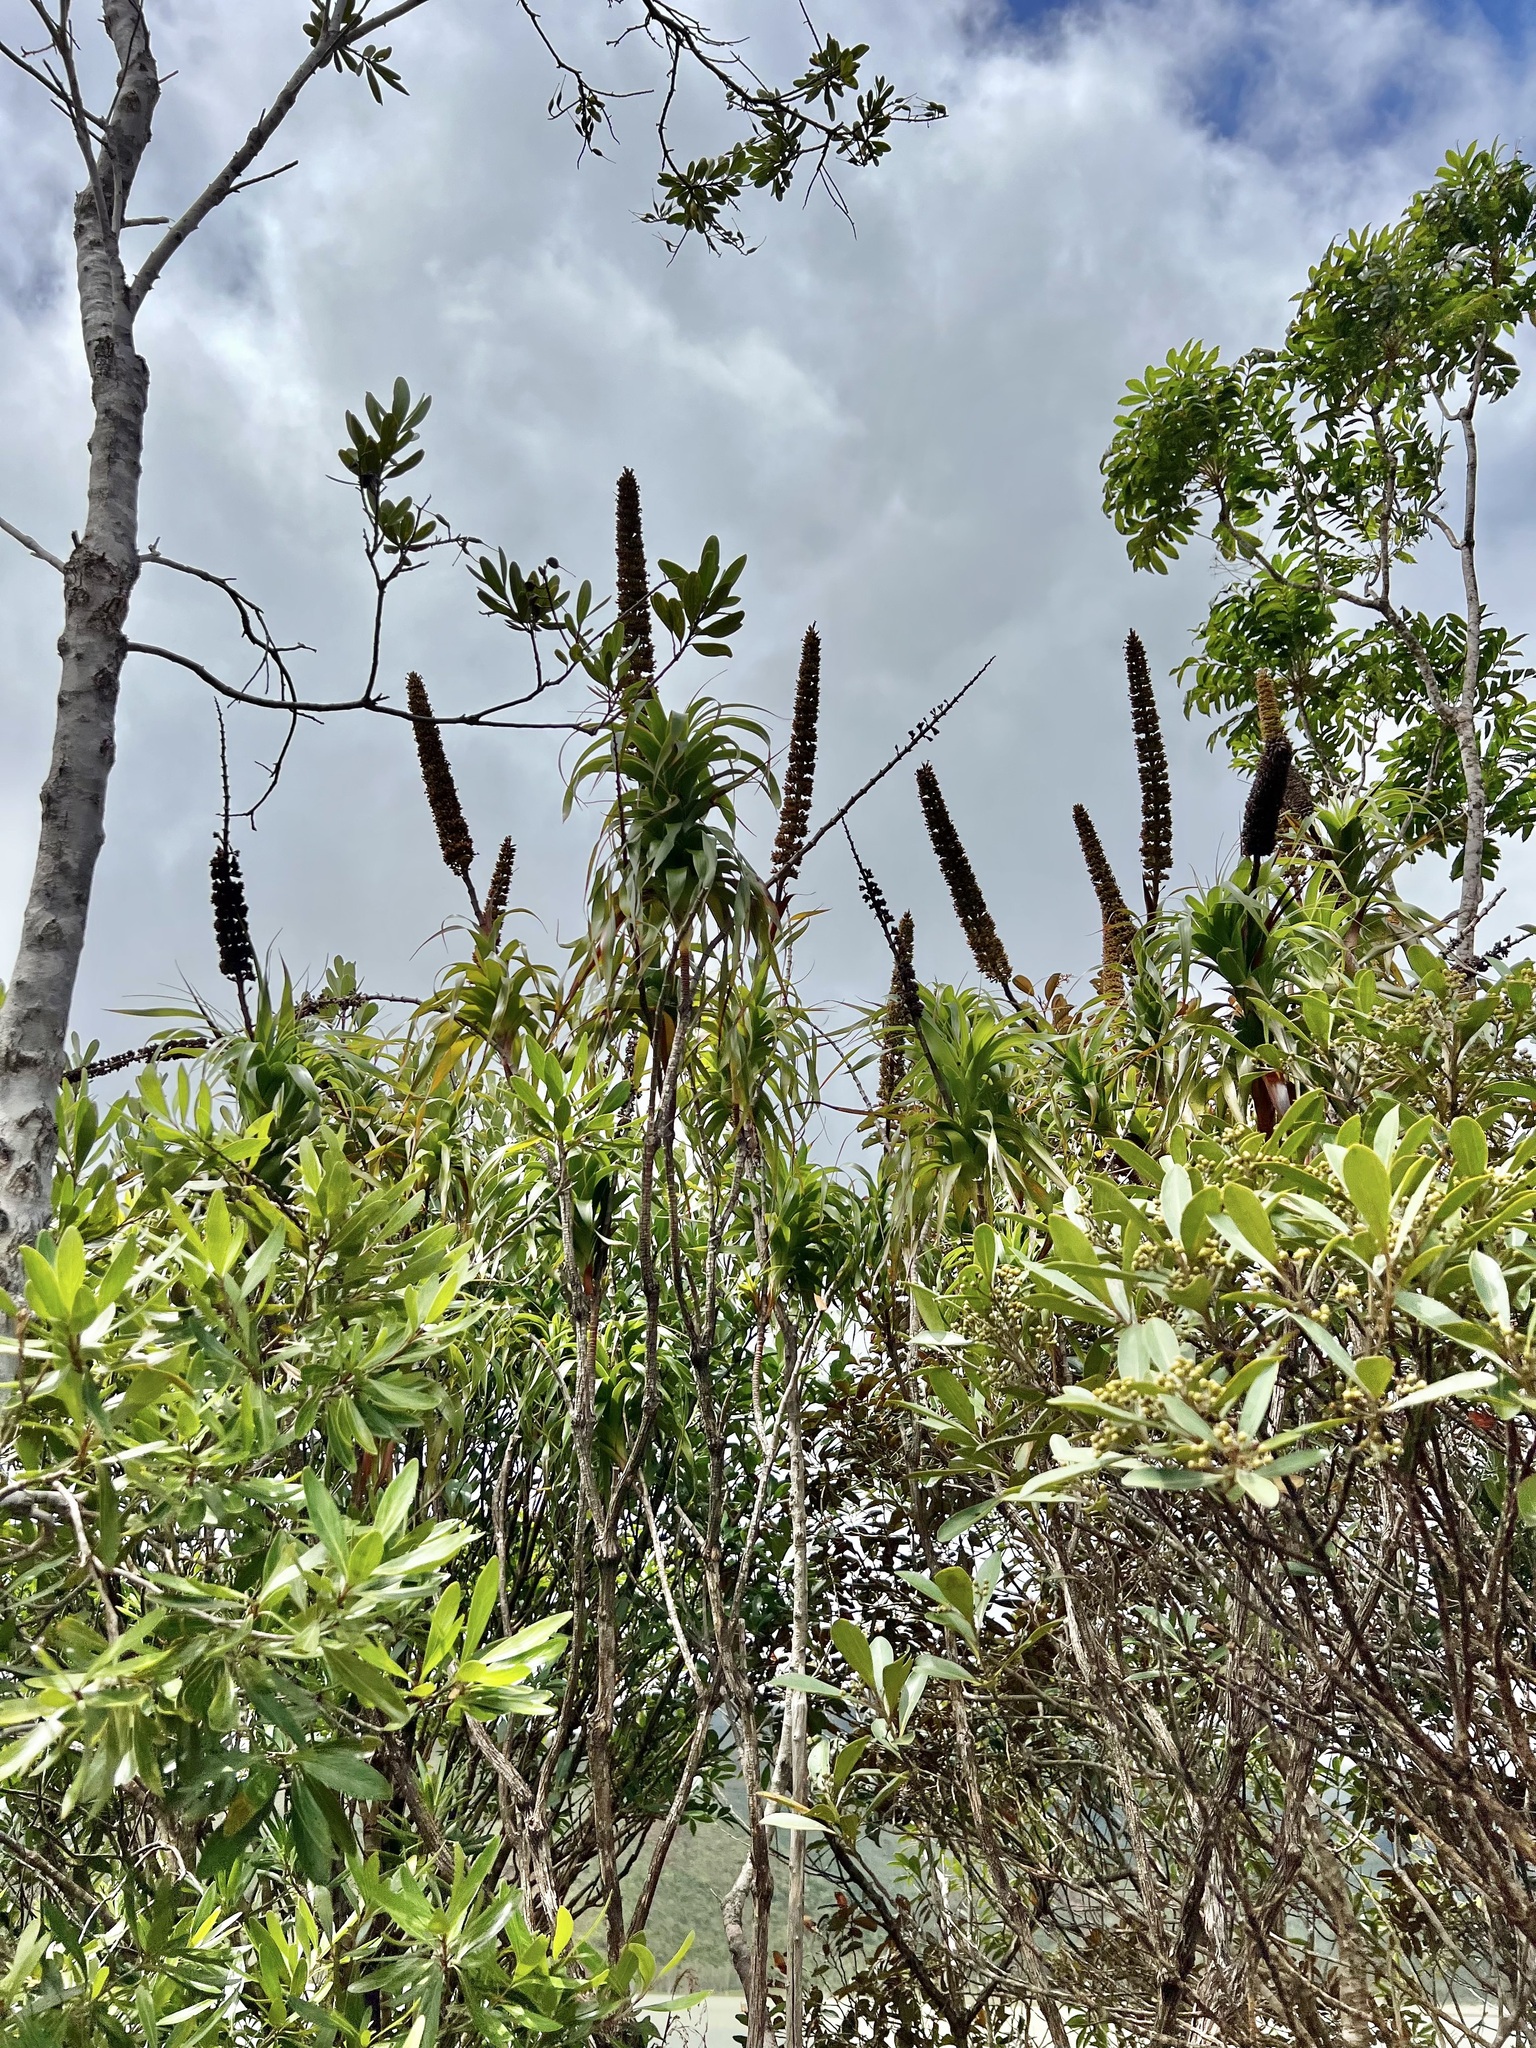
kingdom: Plantae
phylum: Tracheophyta
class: Magnoliopsida
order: Ericales
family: Ericaceae
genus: Dracophyllum
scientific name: Dracophyllum verticillatum
